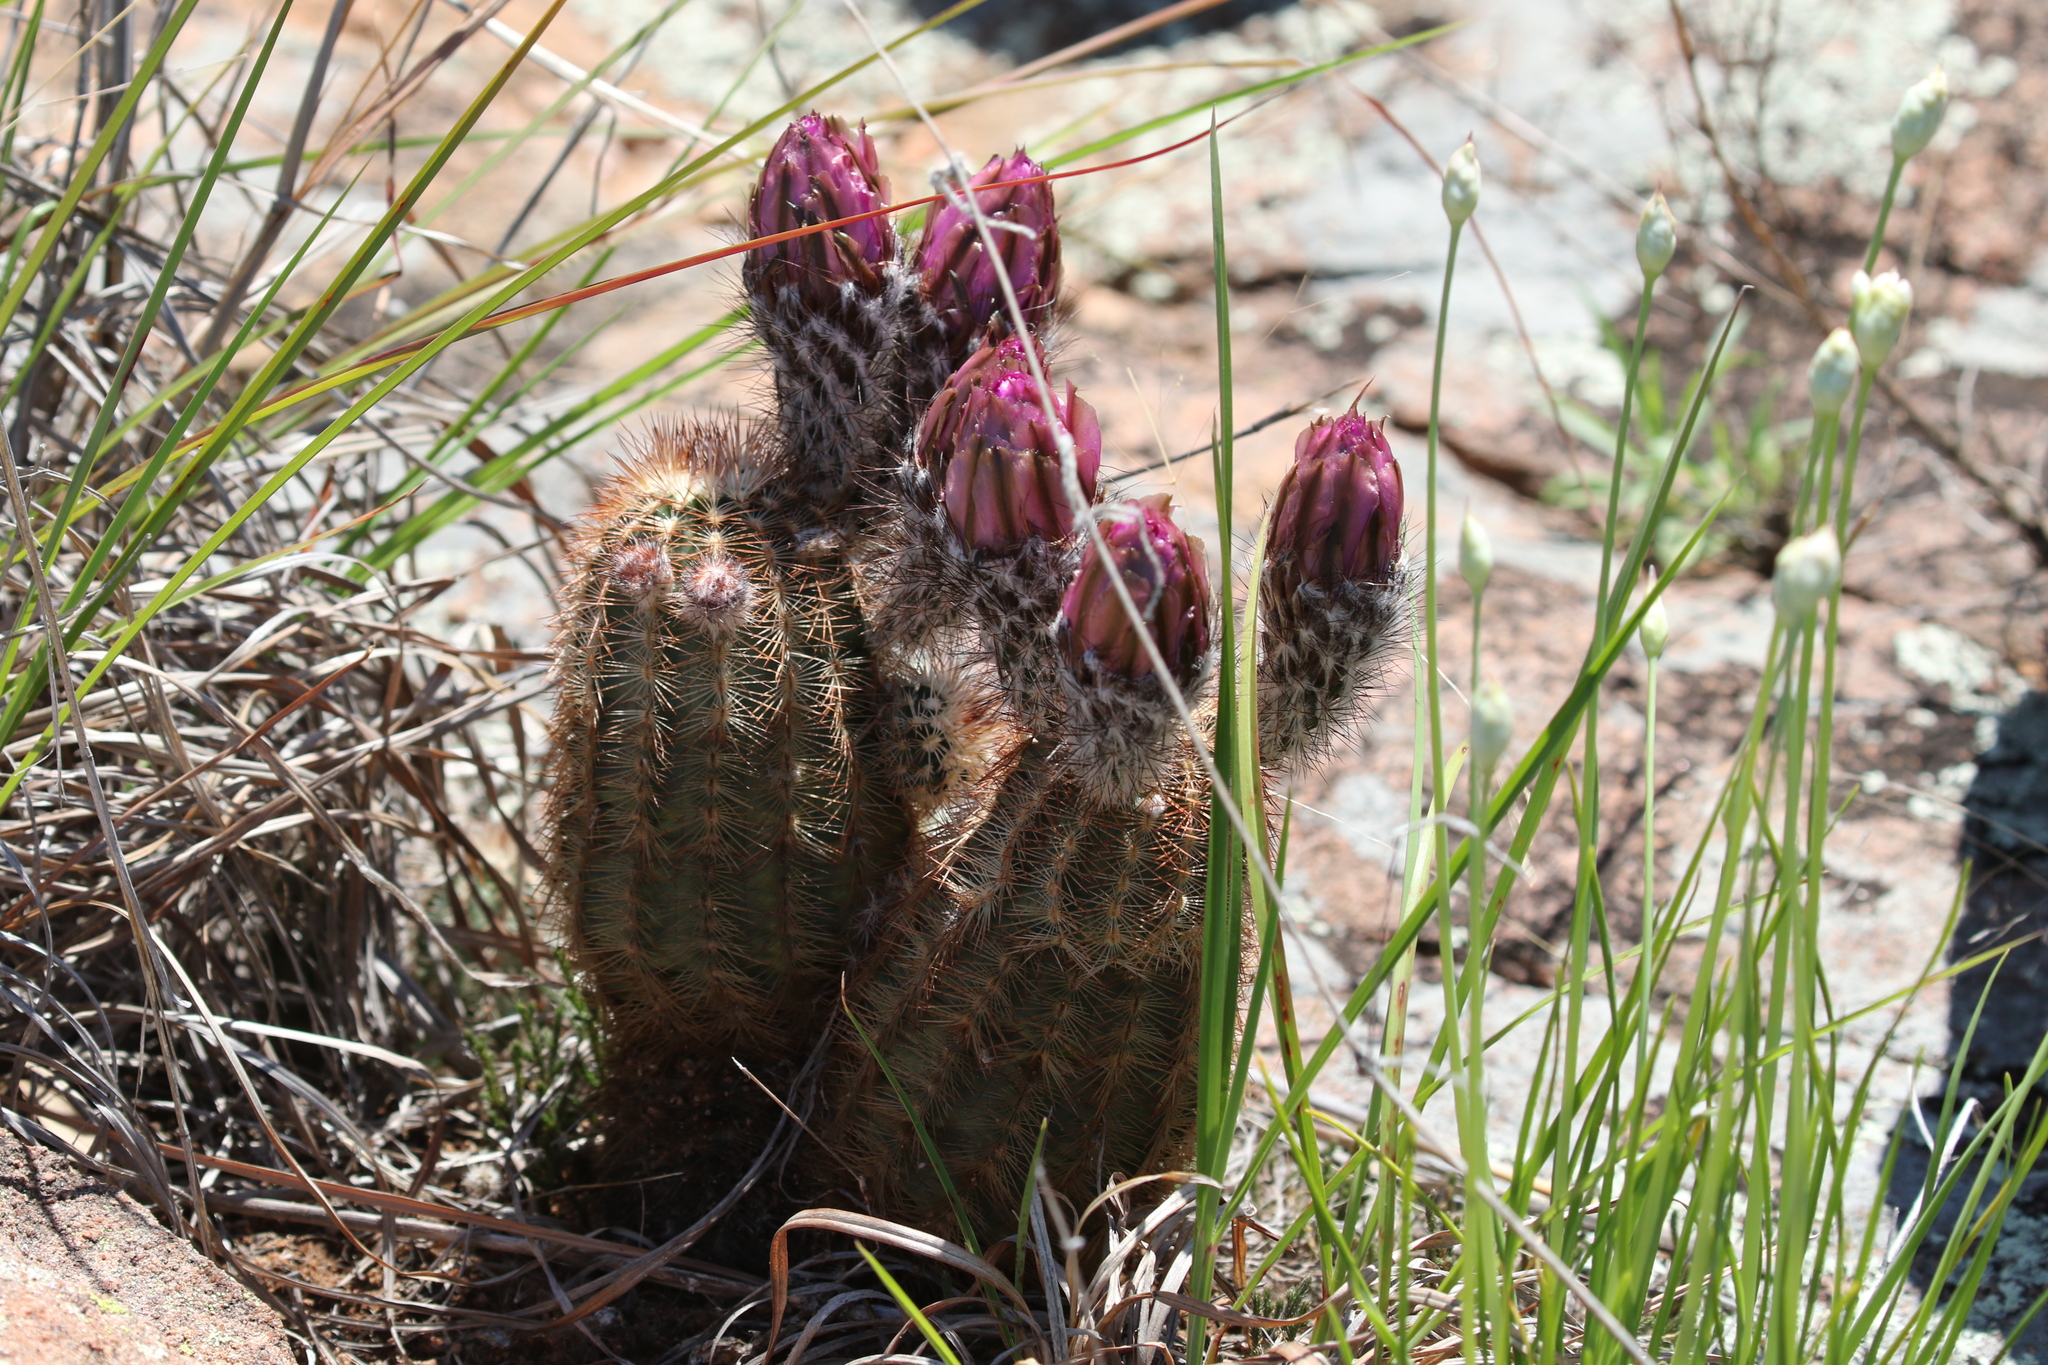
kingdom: Plantae
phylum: Tracheophyta
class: Magnoliopsida
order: Caryophyllales
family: Cactaceae
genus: Echinocereus
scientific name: Echinocereus reichenbachii
